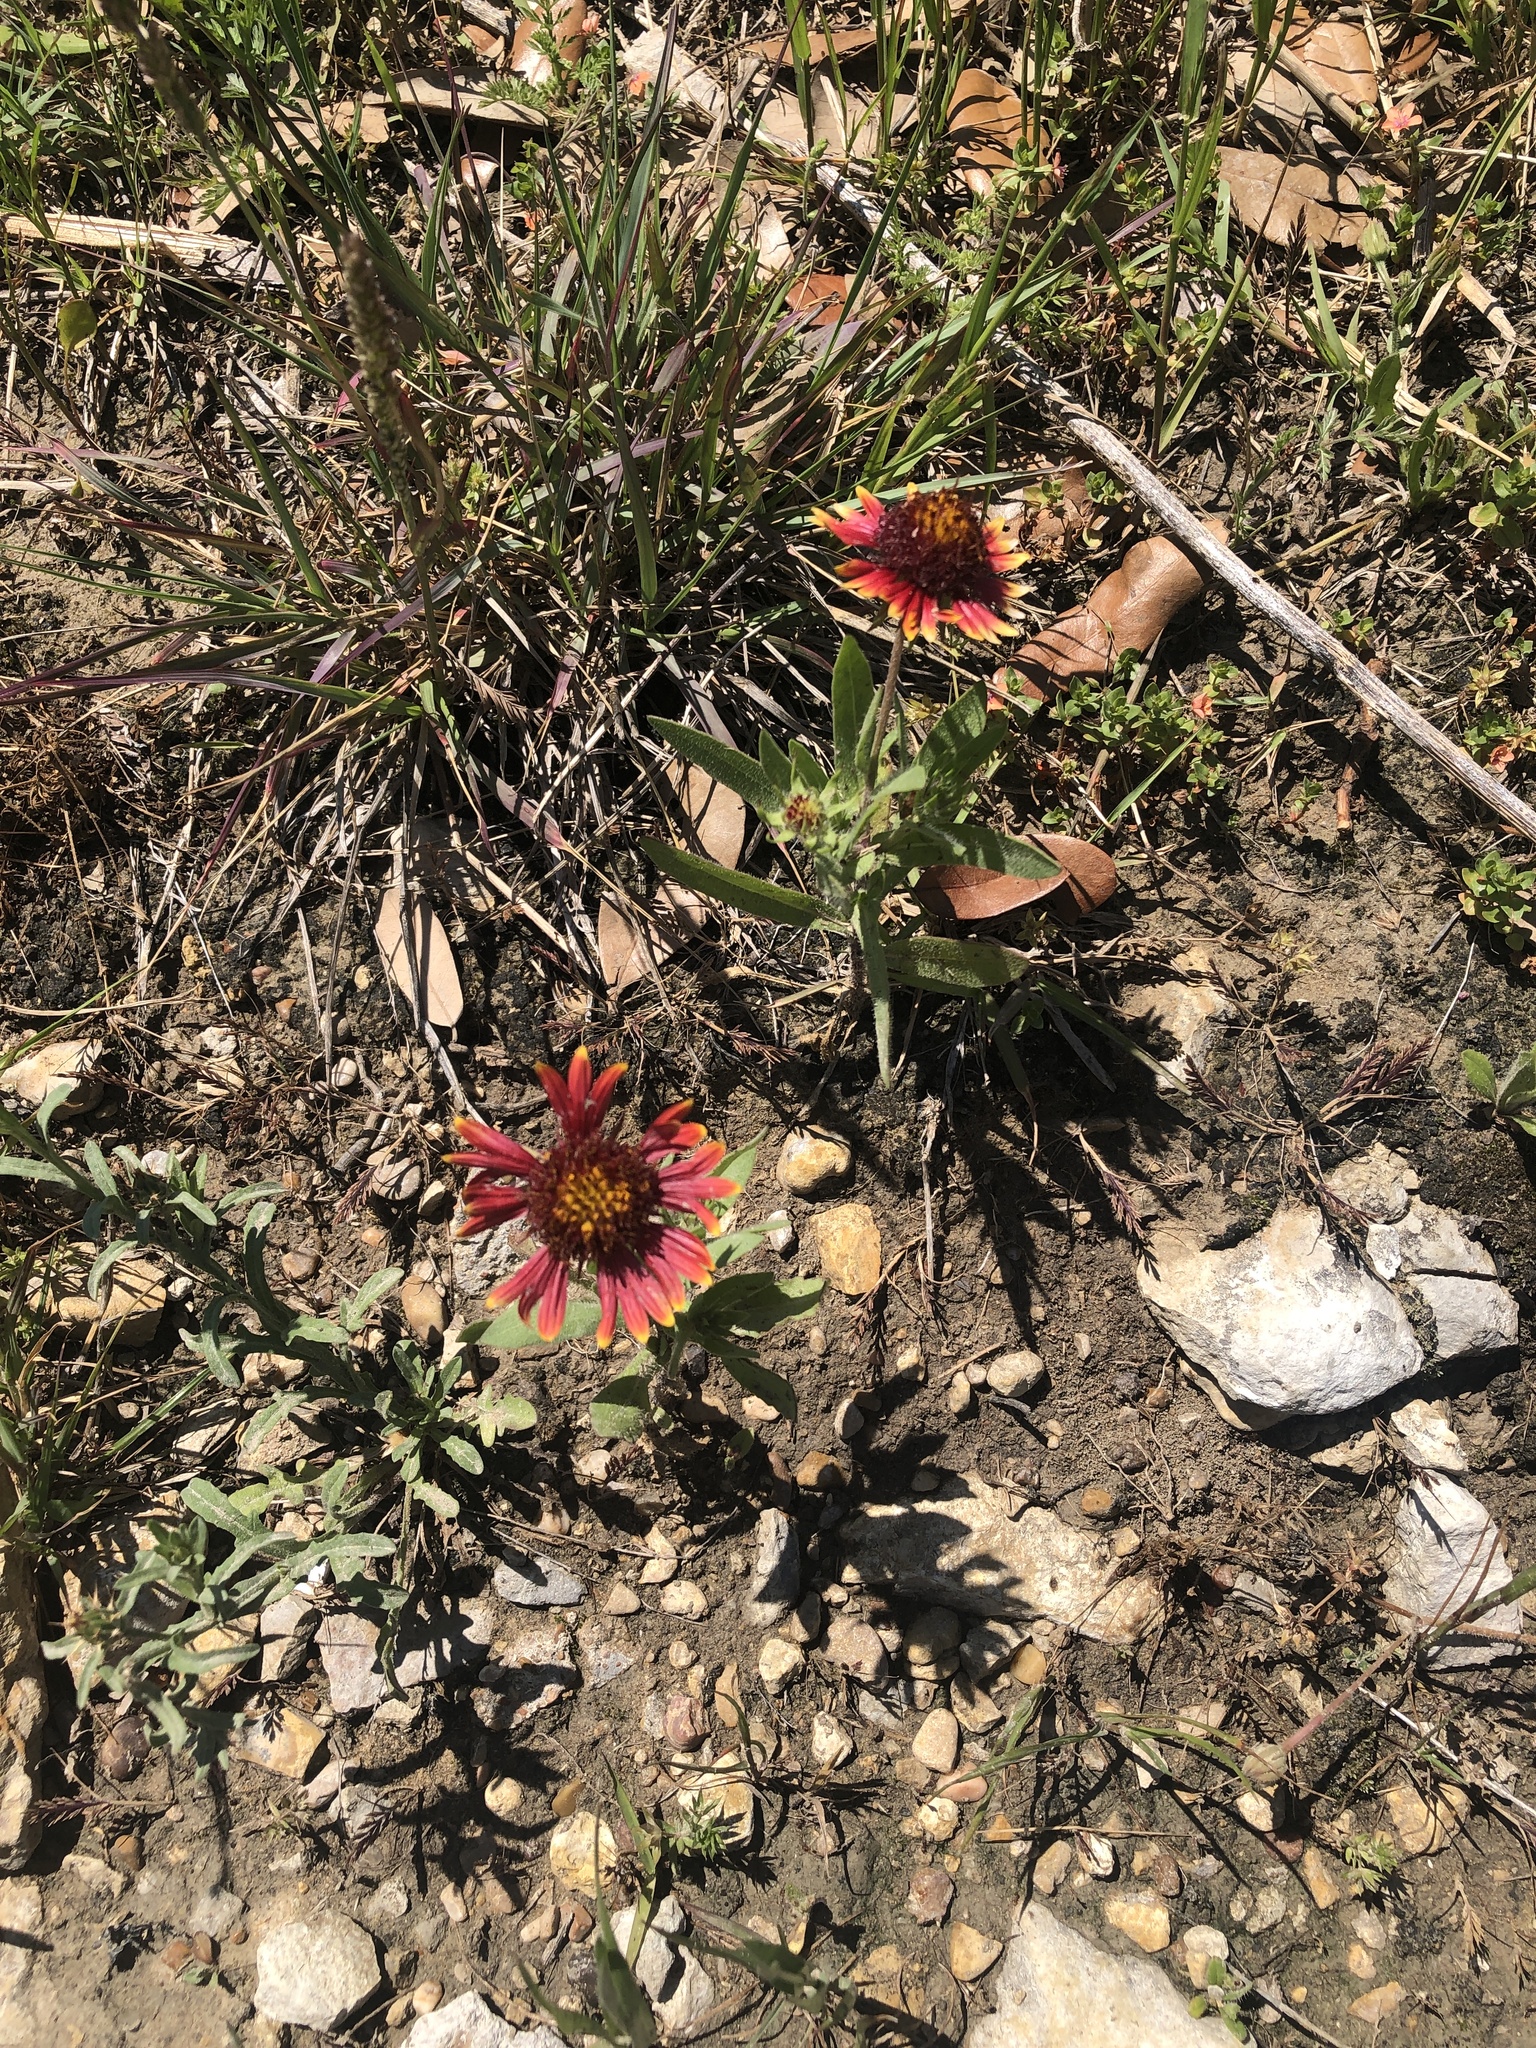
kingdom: Plantae
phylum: Tracheophyta
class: Magnoliopsida
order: Asterales
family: Asteraceae
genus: Gaillardia
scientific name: Gaillardia pulchella
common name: Firewheel
